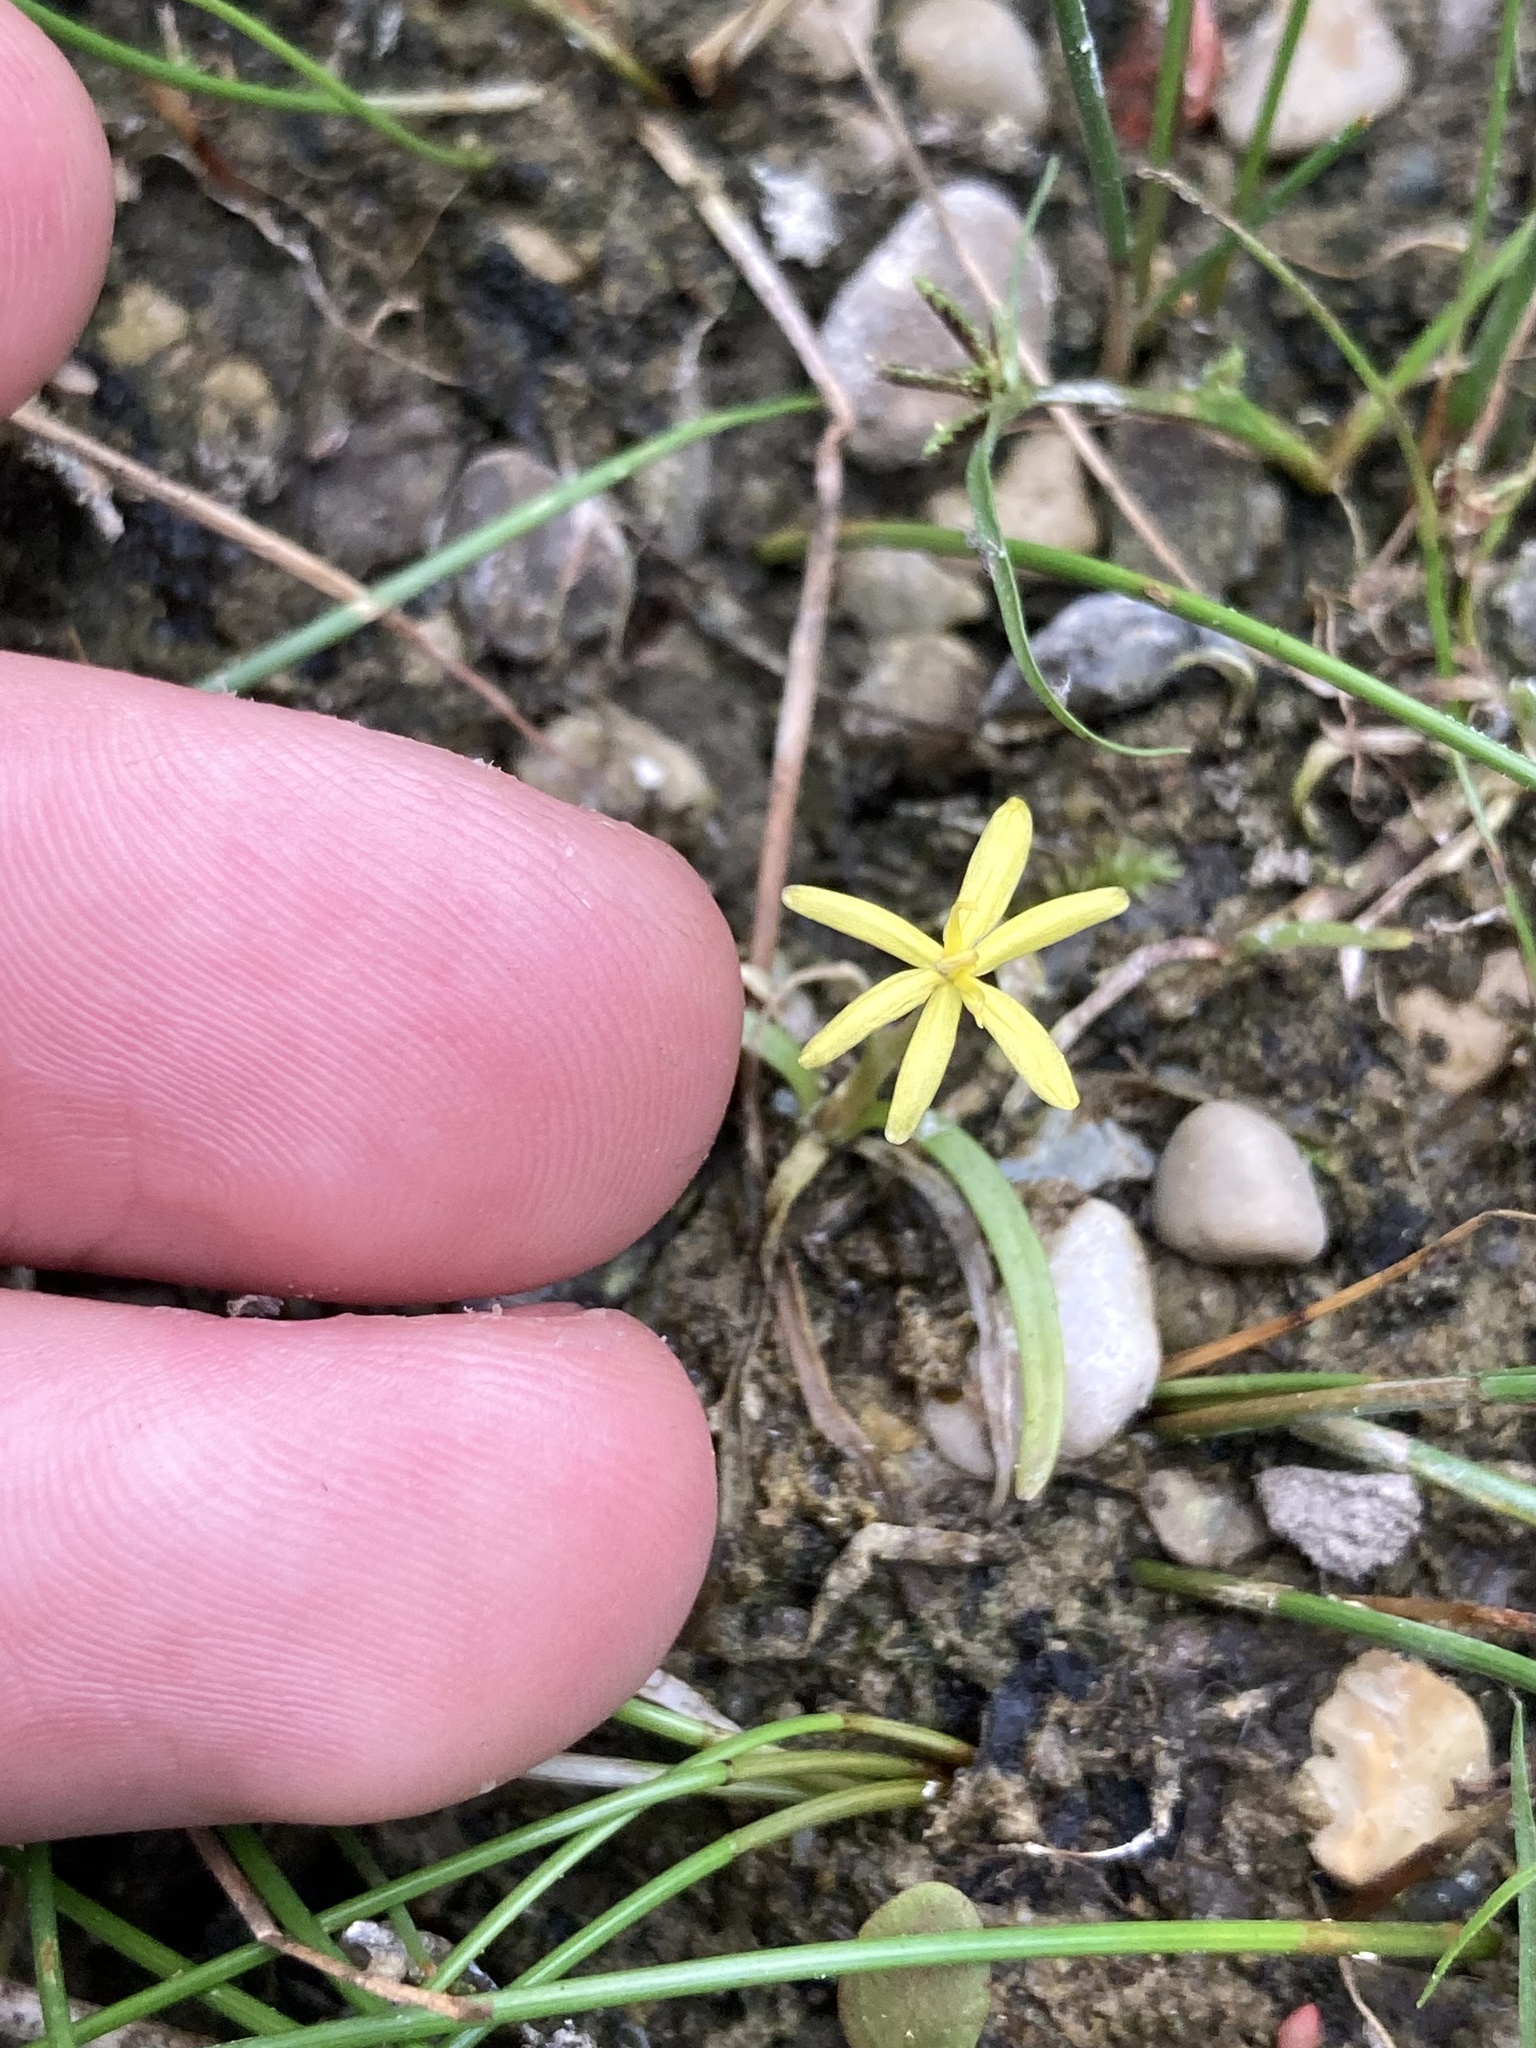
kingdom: Plantae
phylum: Tracheophyta
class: Liliopsida
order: Commelinales
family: Pontederiaceae
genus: Heteranthera
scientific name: Heteranthera dubia
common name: Grass-leaved mud plantain
